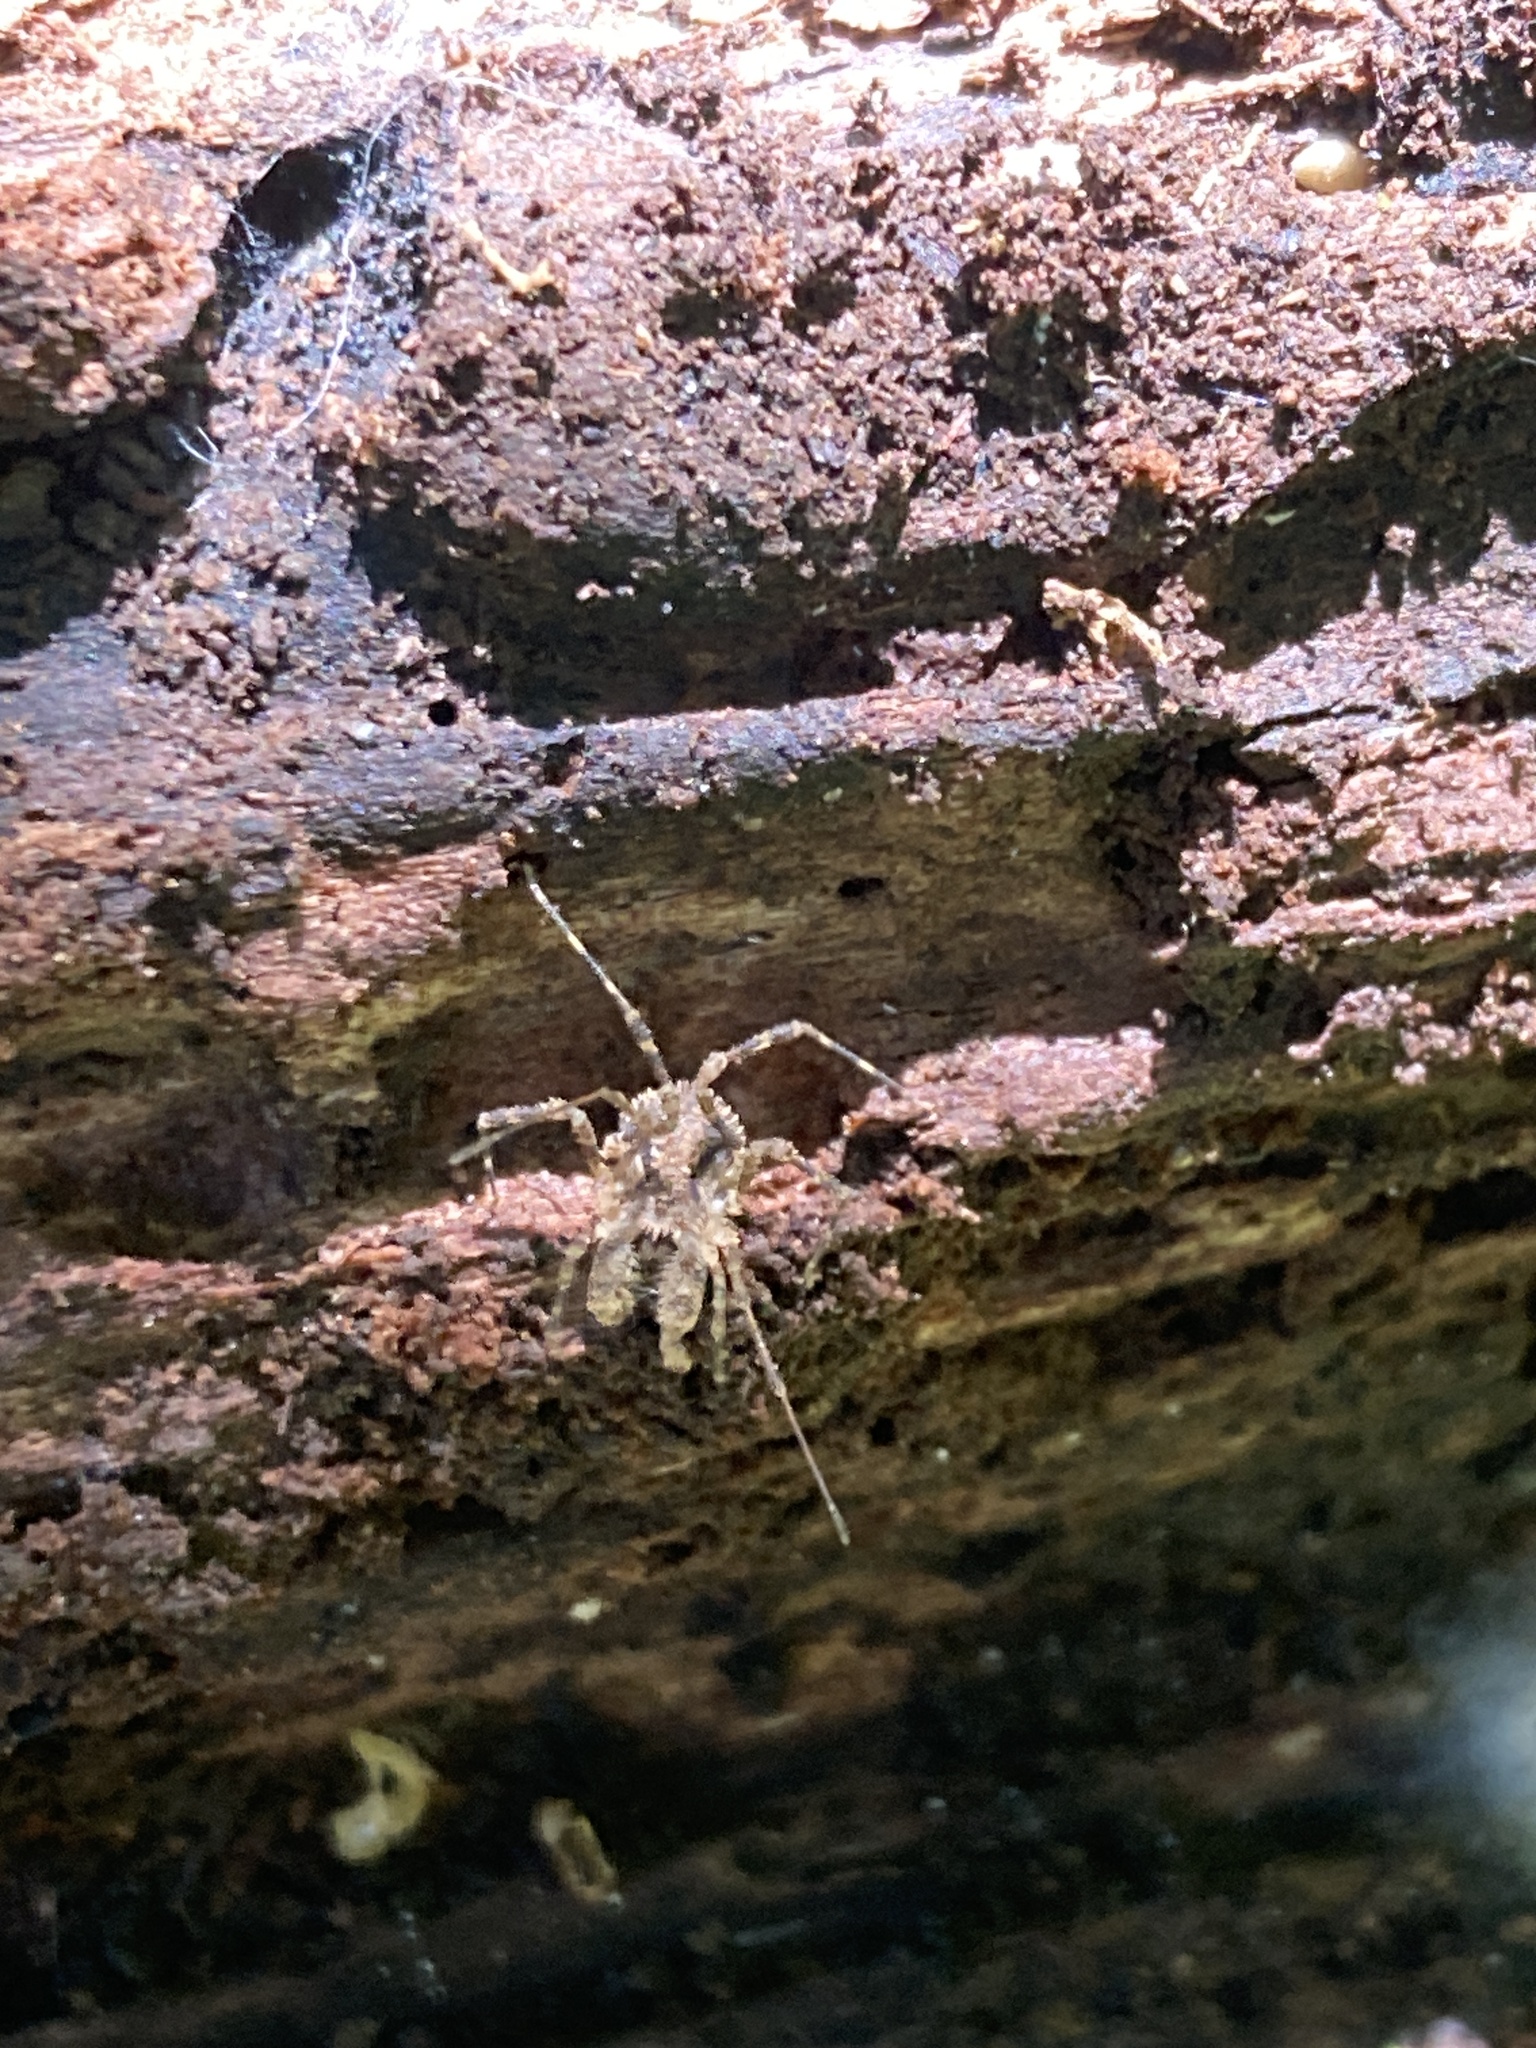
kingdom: Animalia
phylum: Arthropoda
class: Arachnida
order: Opiliones
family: Triaenonychidae
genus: Algidia
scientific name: Algidia cuspidata
